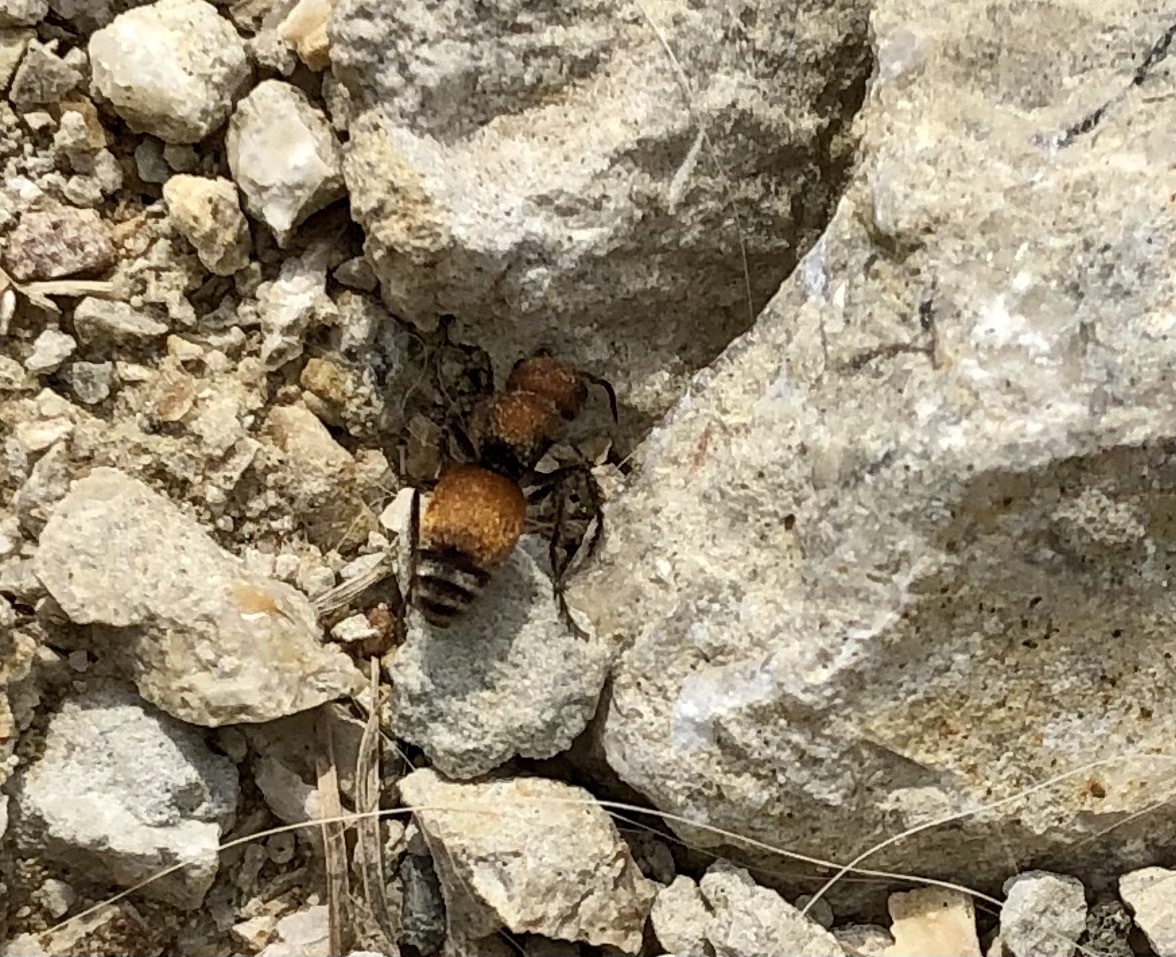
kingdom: Animalia
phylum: Arthropoda
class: Insecta
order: Hymenoptera
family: Mutillidae
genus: Pseudomethoca
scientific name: Pseudomethoca
